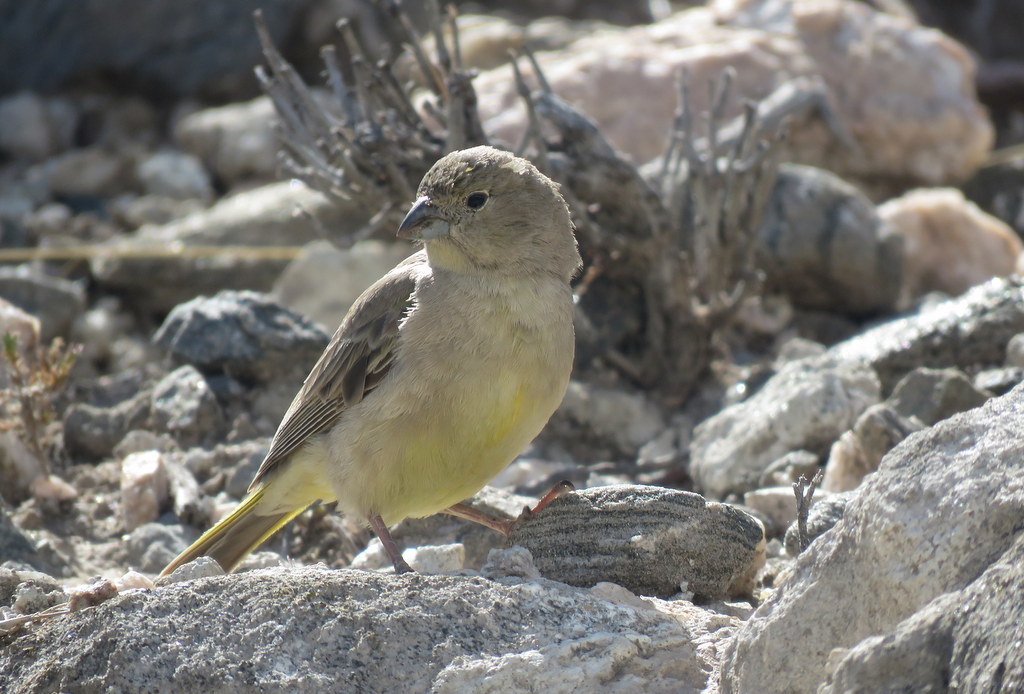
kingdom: Animalia
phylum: Chordata
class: Aves
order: Passeriformes
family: Thraupidae
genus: Sicalis
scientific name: Sicalis olivascens
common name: Greenish yellow finch
